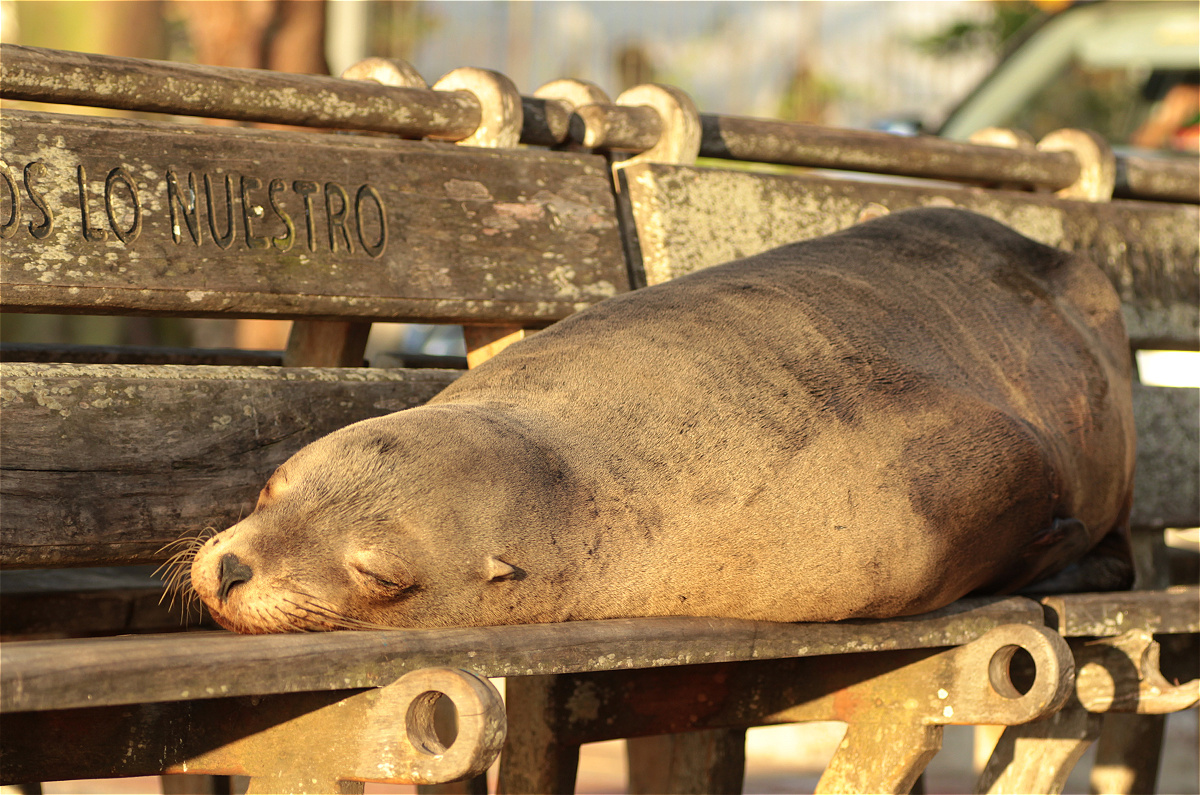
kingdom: Animalia
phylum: Chordata
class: Mammalia
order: Carnivora
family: Otariidae
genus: Zalophus
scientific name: Zalophus wollebaeki
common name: Galapagos sea lion
